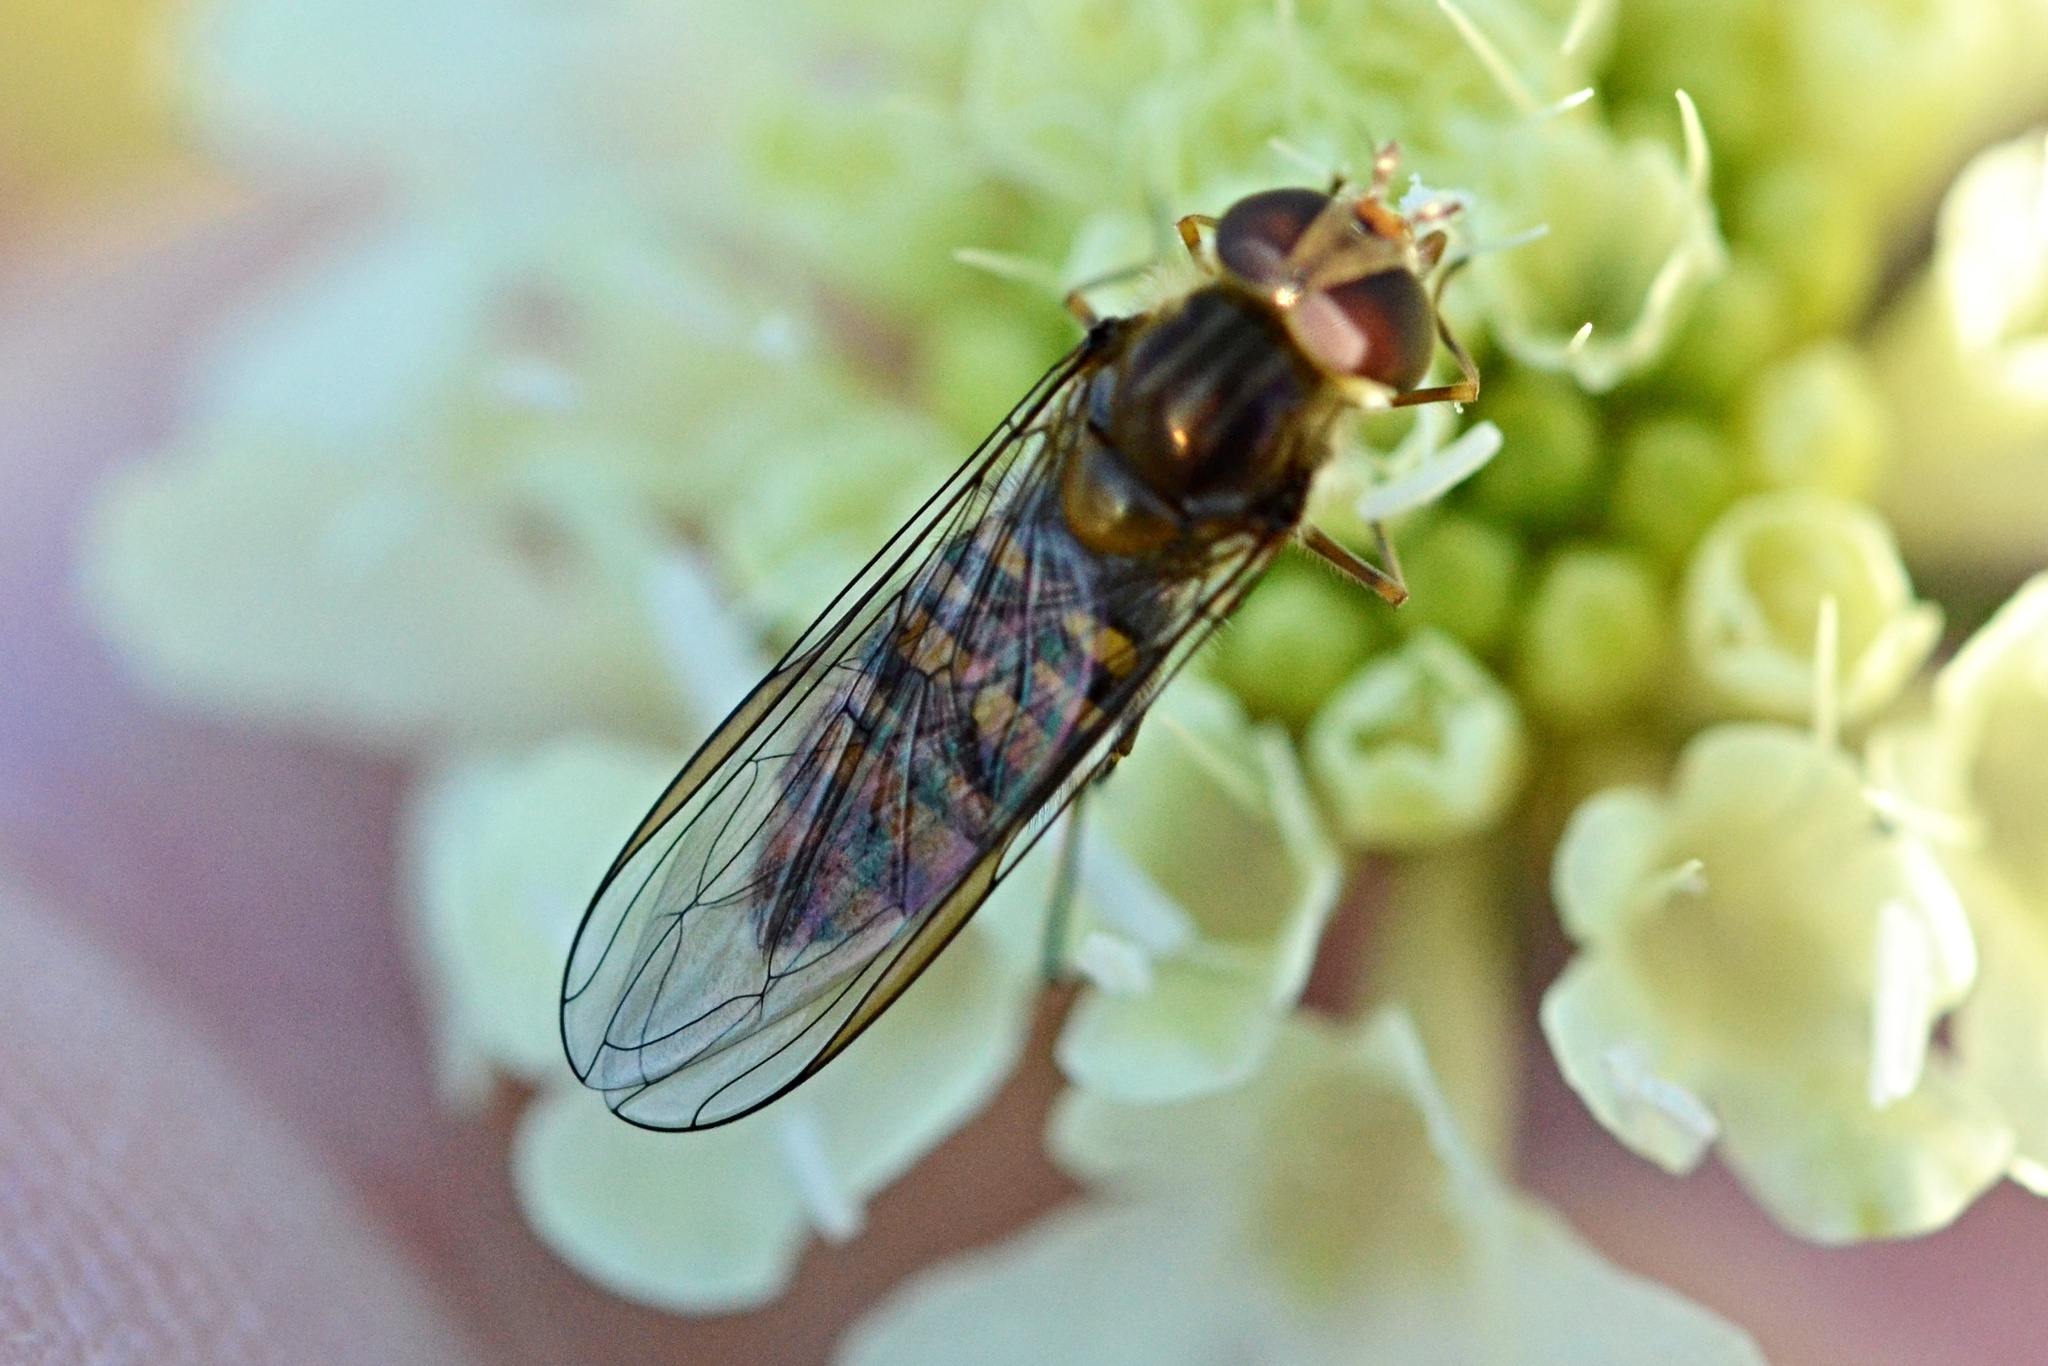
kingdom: Animalia
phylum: Arthropoda
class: Insecta
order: Diptera
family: Syrphidae
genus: Episyrphus
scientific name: Episyrphus balteatus
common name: Marmalade hoverfly
